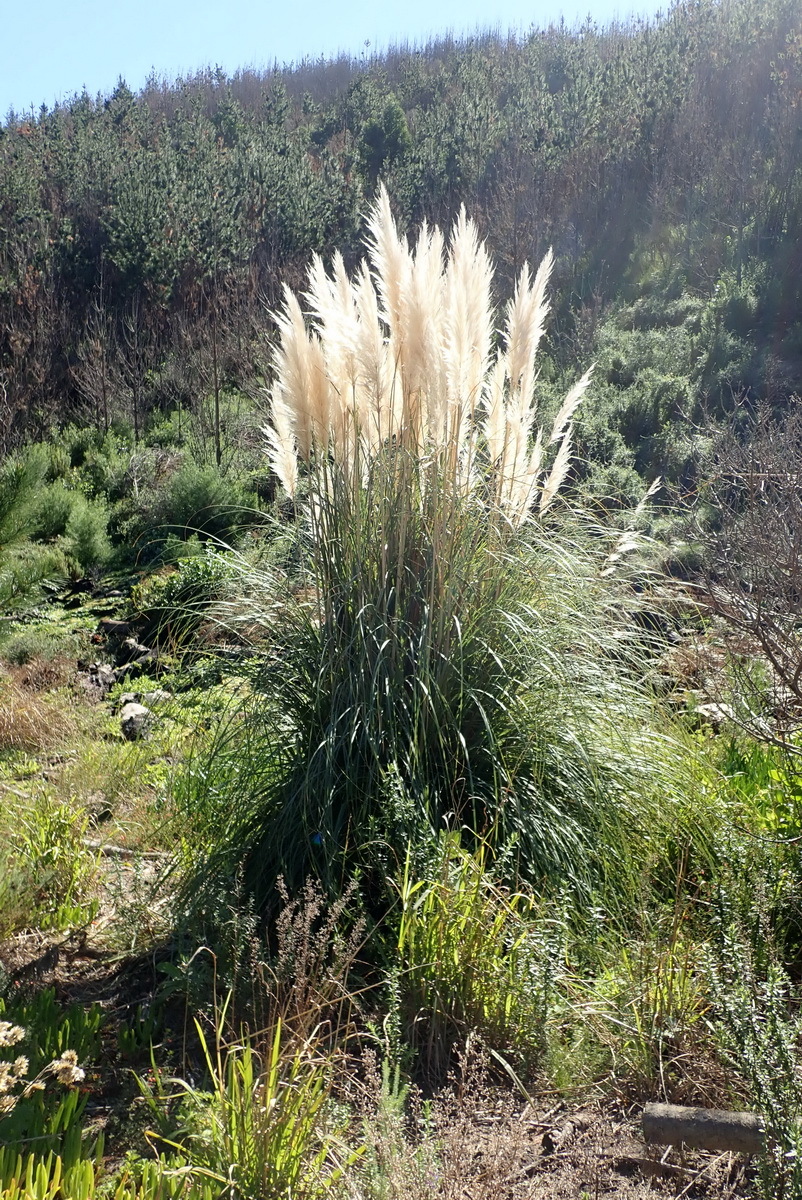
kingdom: Plantae
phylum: Tracheophyta
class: Liliopsida
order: Poales
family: Poaceae
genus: Cortaderia
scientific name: Cortaderia selloana
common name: Uruguayan pampas grass
